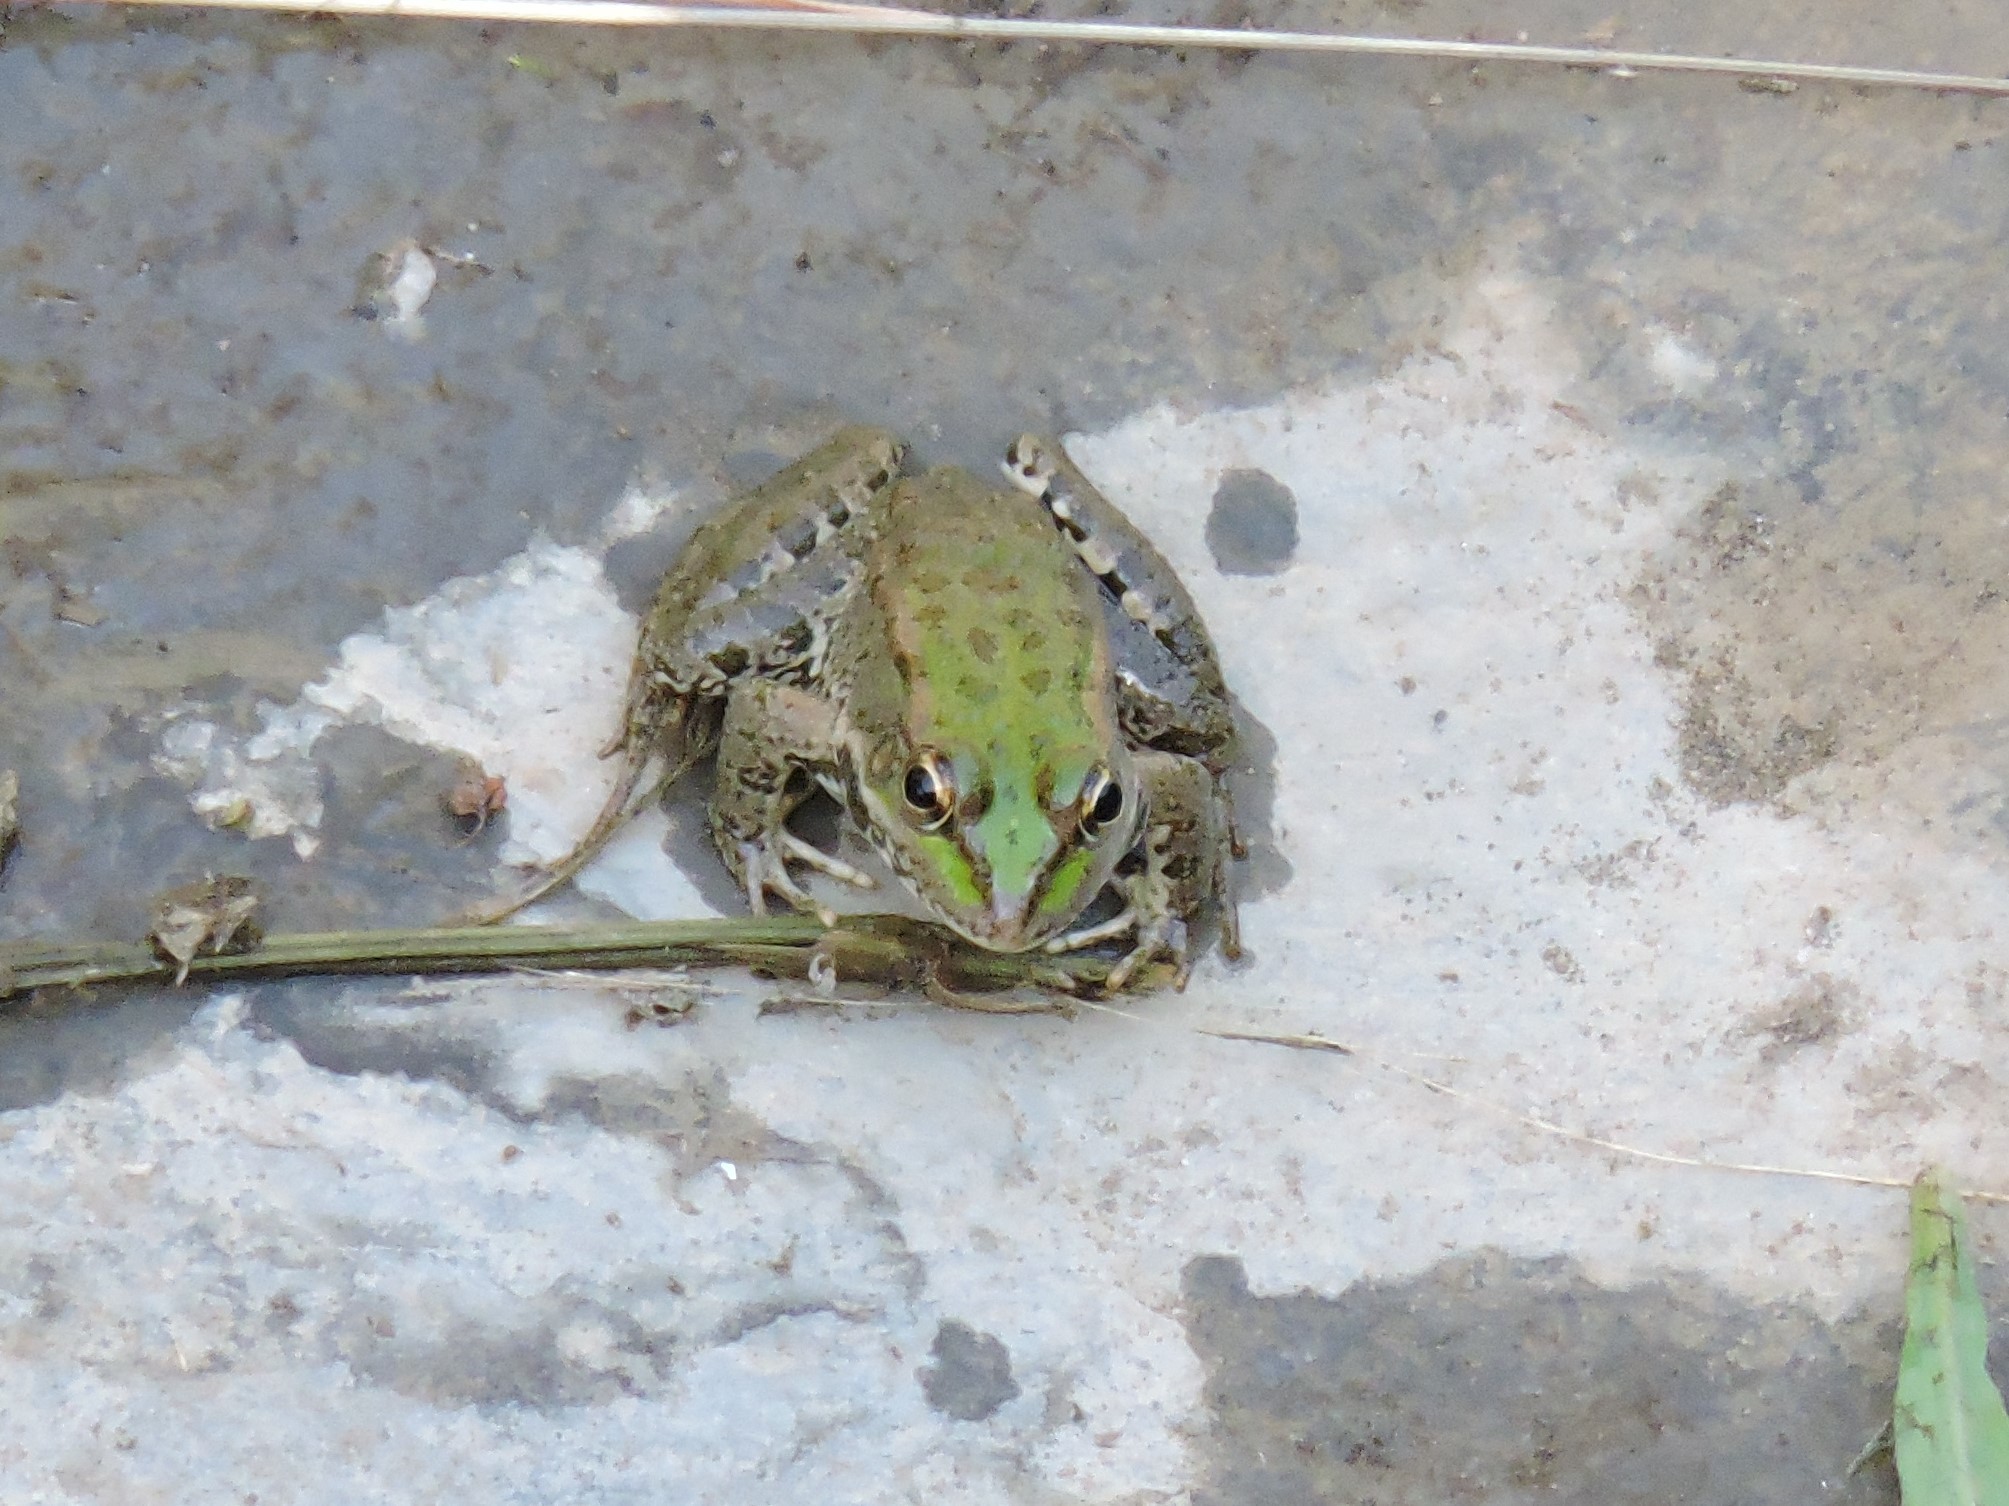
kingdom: Animalia
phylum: Chordata
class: Amphibia
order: Anura
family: Ranidae
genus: Pelophylax
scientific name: Pelophylax ridibundus
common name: Marsh frog
